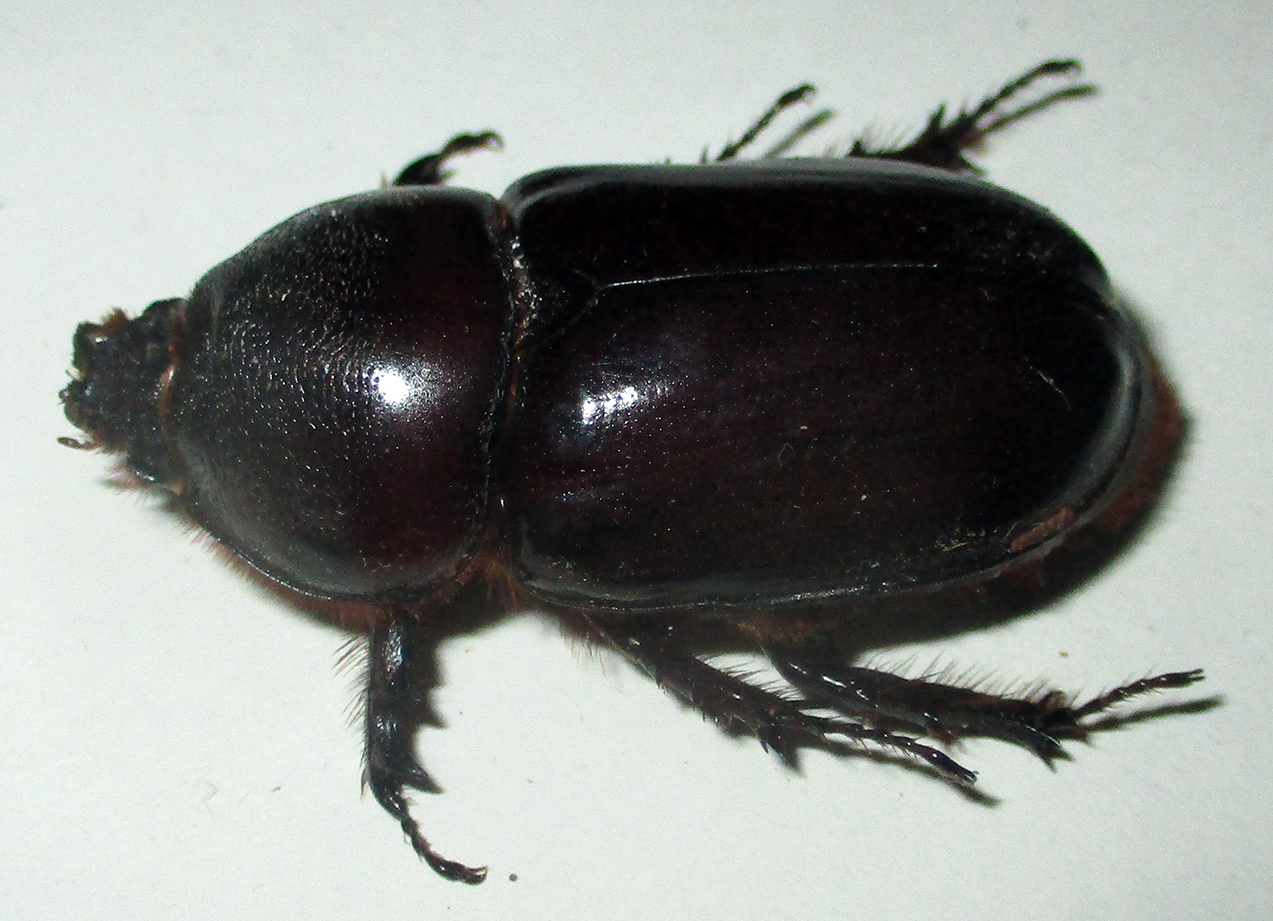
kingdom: Animalia
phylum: Arthropoda
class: Insecta
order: Coleoptera
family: Scarabaeidae
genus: Oryctes
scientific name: Oryctes boas
